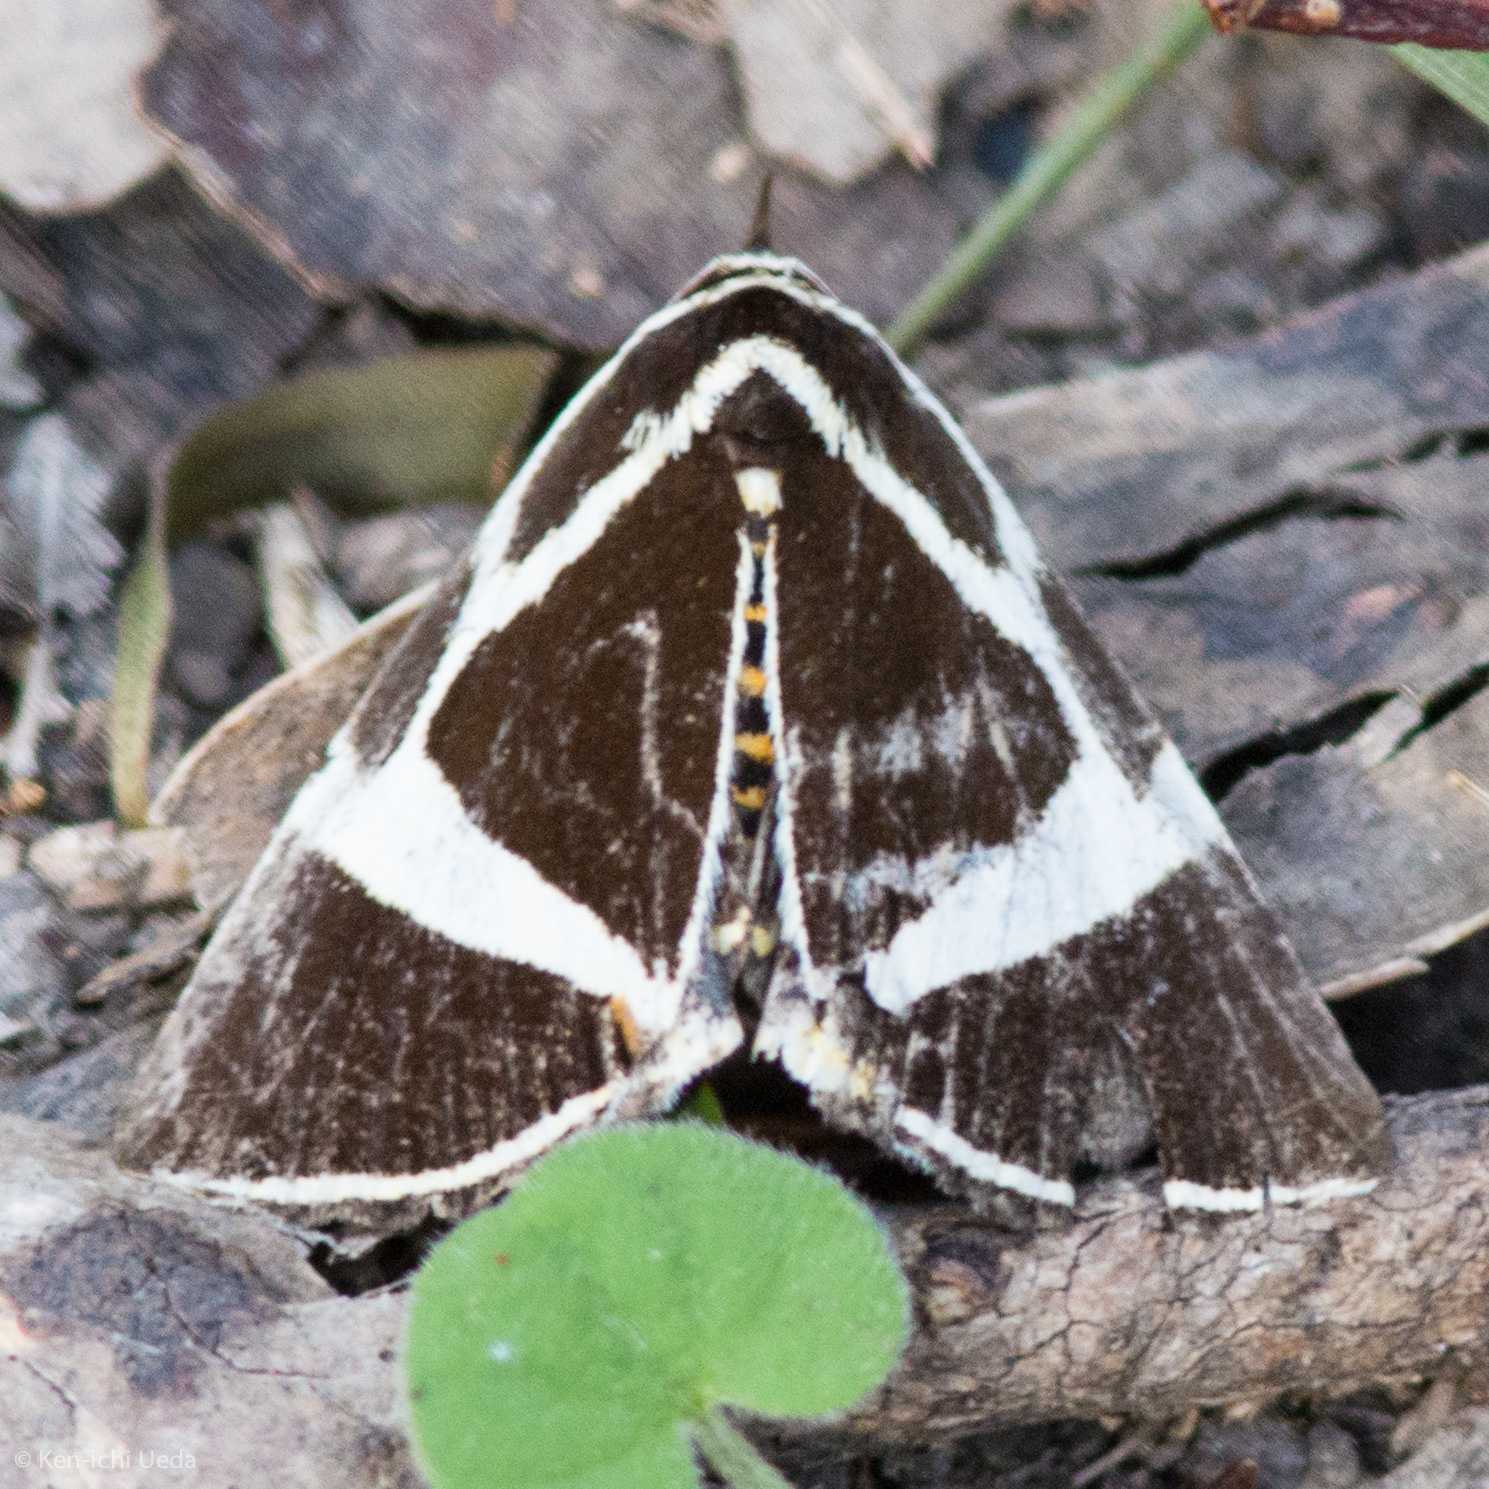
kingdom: Animalia
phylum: Arthropoda
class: Insecta
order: Lepidoptera
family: Erebidae
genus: Fodina
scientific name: Fodina ostorius
